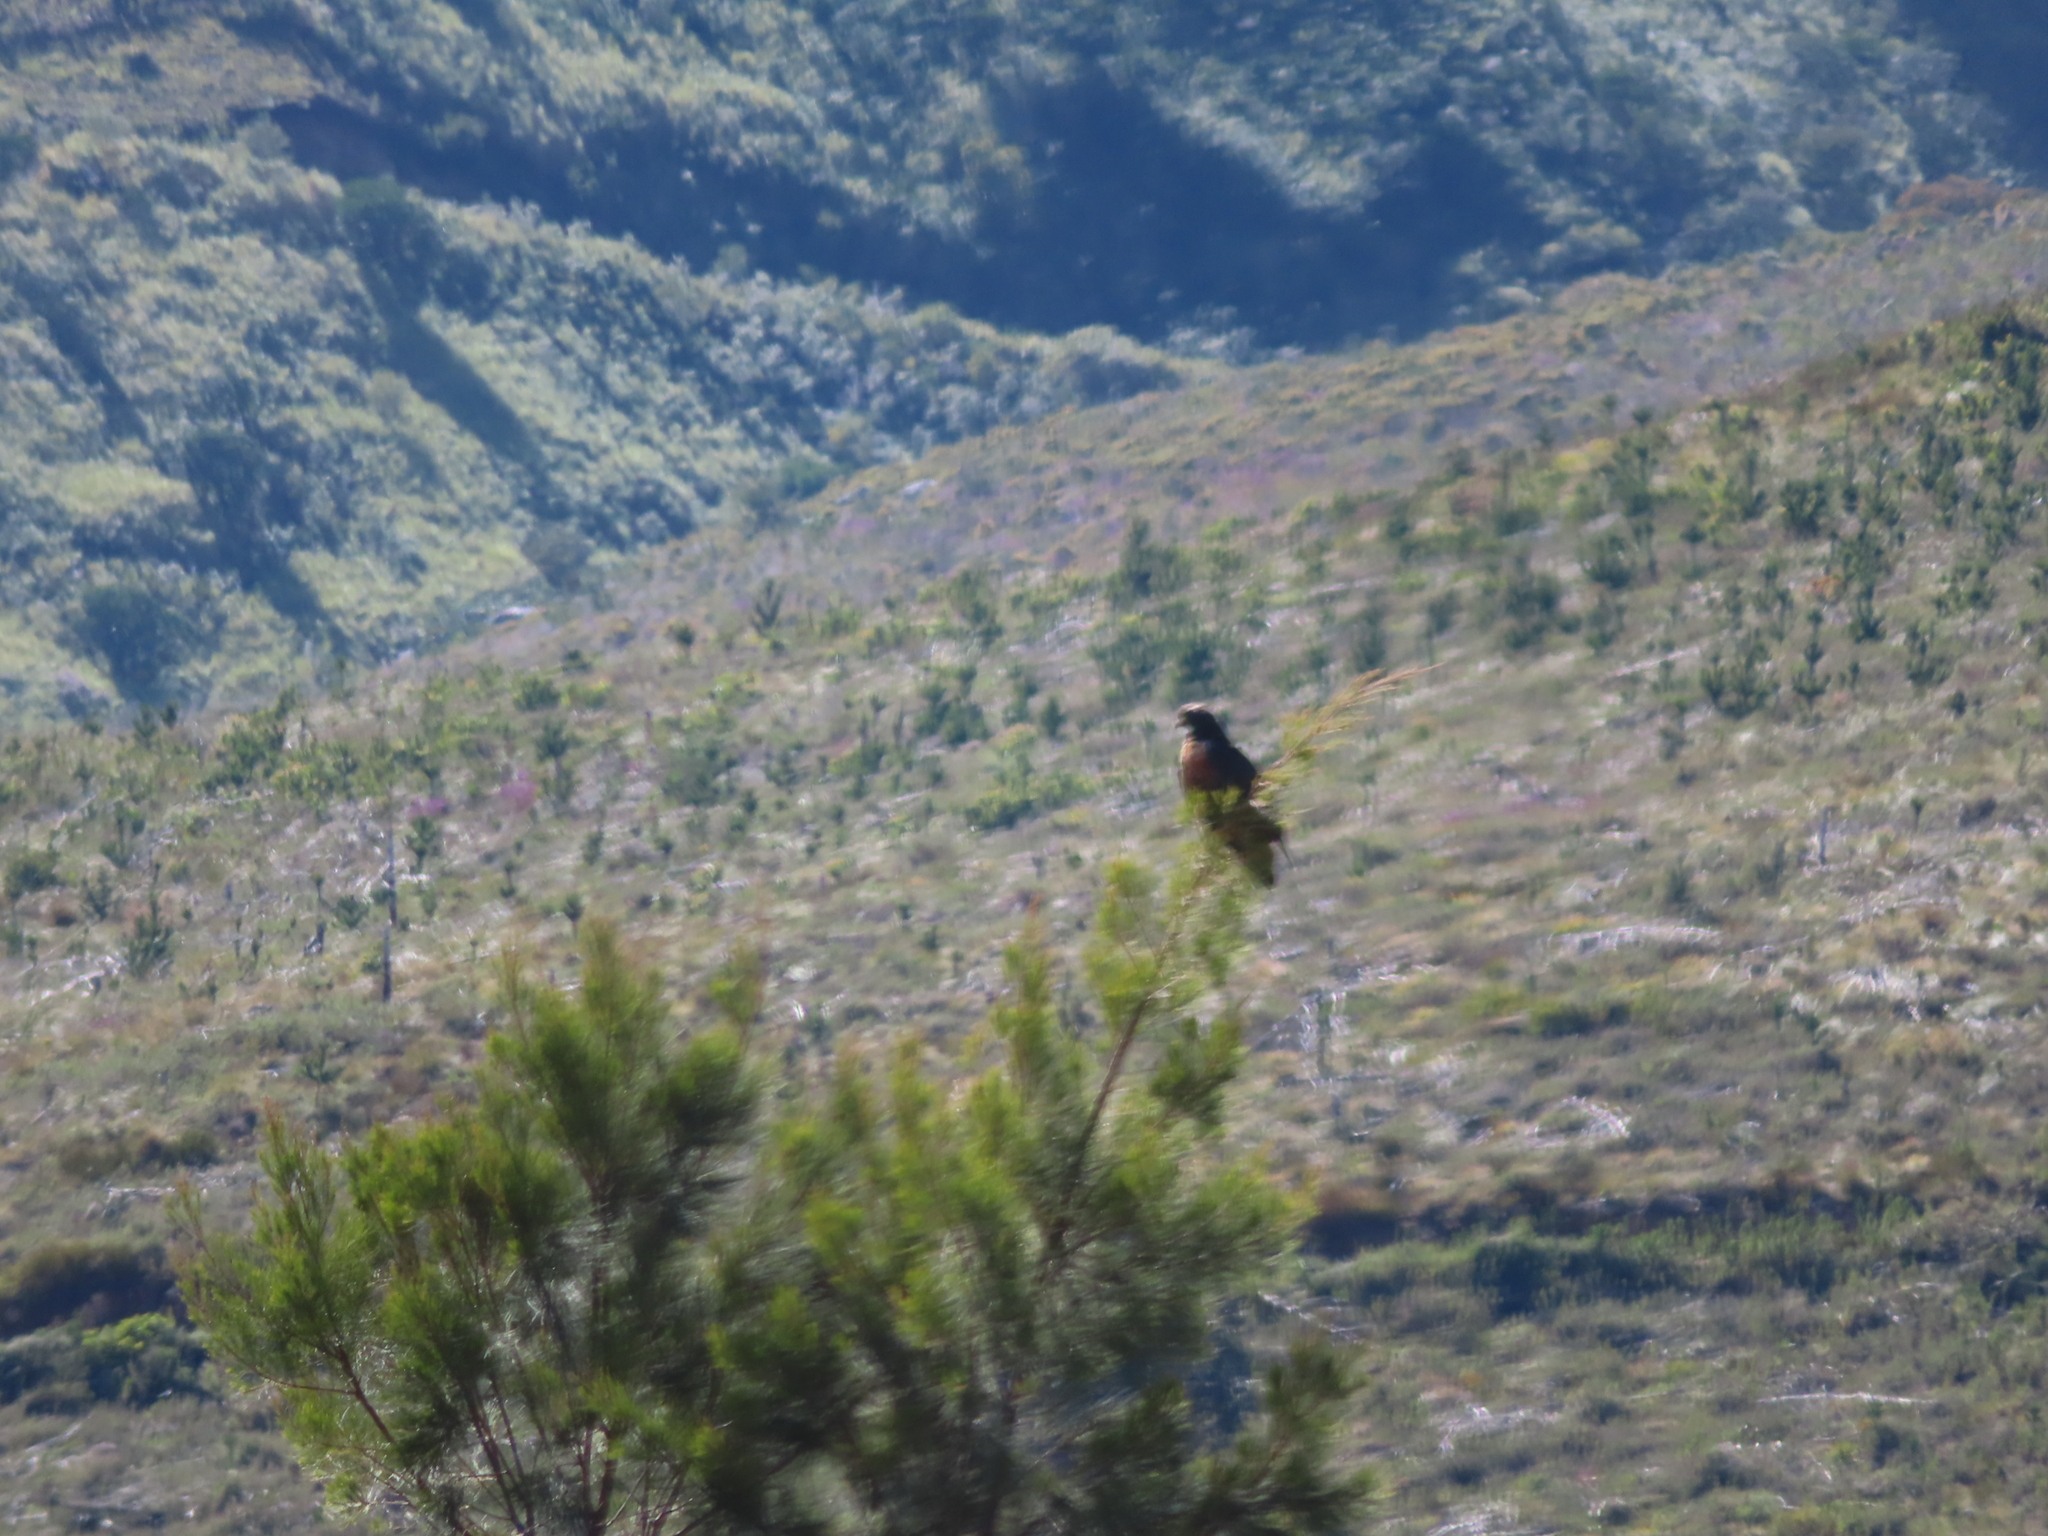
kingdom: Animalia
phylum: Chordata
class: Aves
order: Accipitriformes
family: Accipitridae
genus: Buteo
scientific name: Buteo rufofuscus
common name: Jackal buzzard
